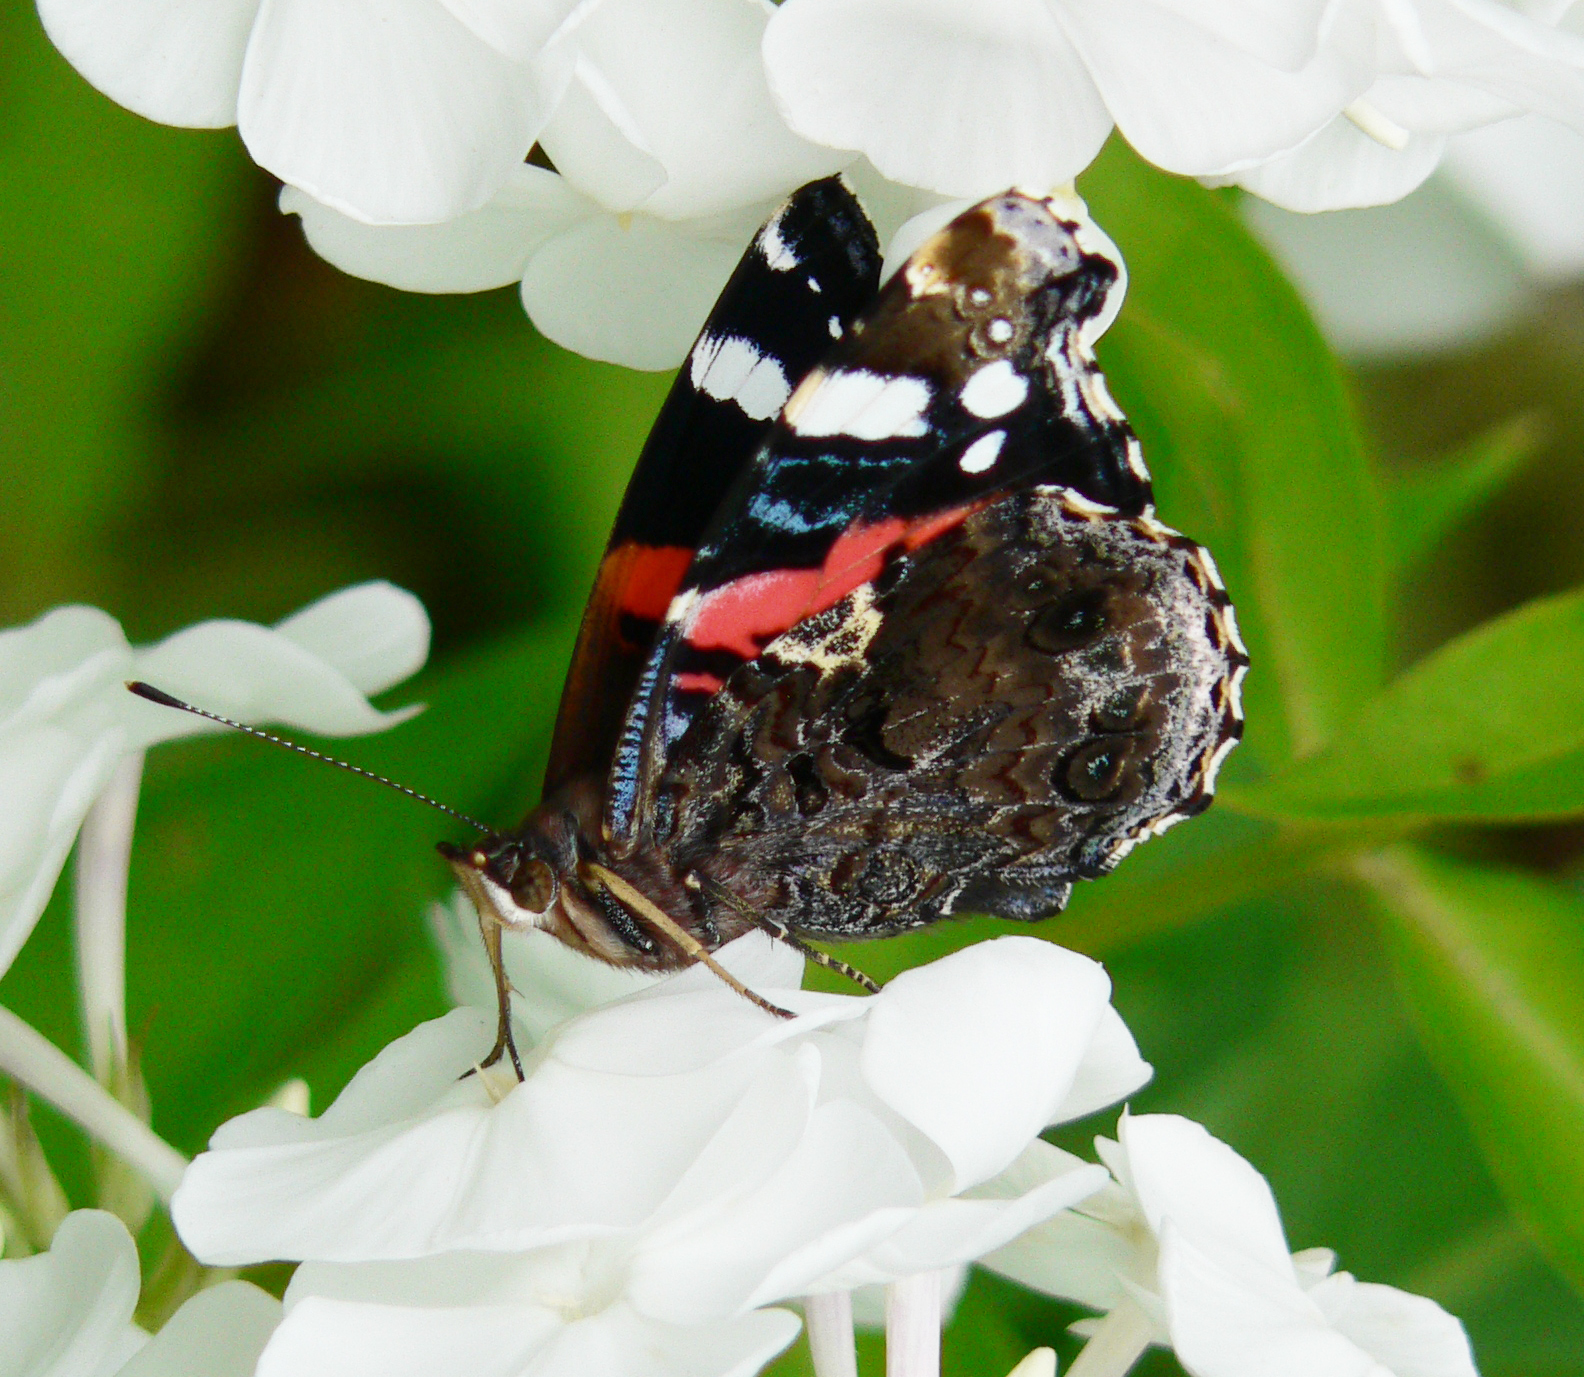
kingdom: Animalia
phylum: Arthropoda
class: Insecta
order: Lepidoptera
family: Nymphalidae
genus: Vanessa
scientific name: Vanessa atalanta
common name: Red admiral
